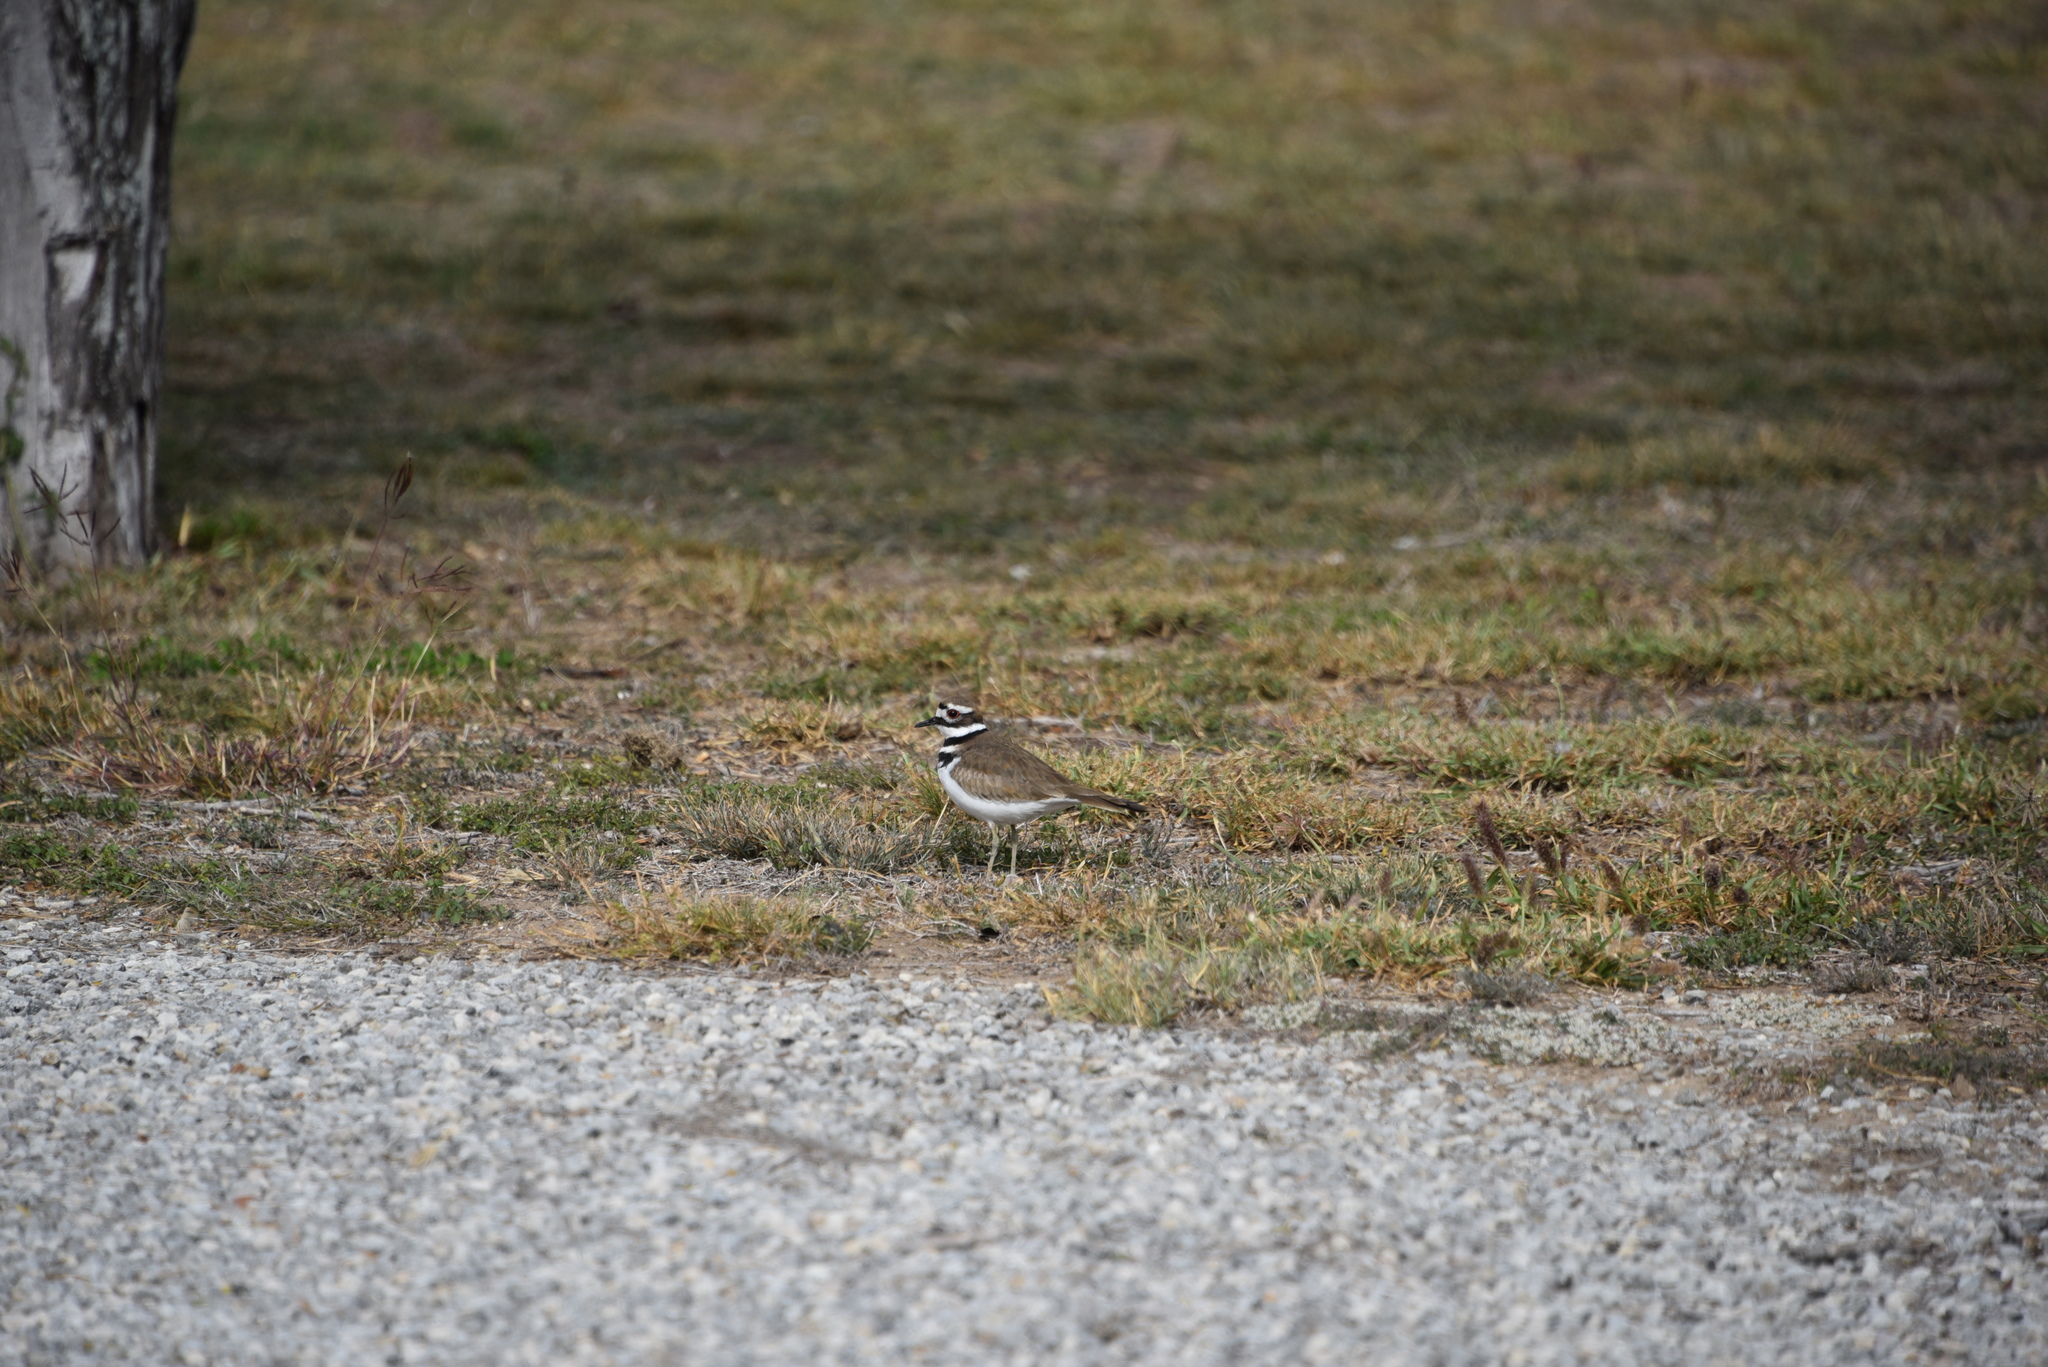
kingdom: Animalia
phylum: Chordata
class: Aves
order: Charadriiformes
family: Charadriidae
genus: Charadrius
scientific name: Charadrius vociferus
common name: Killdeer
